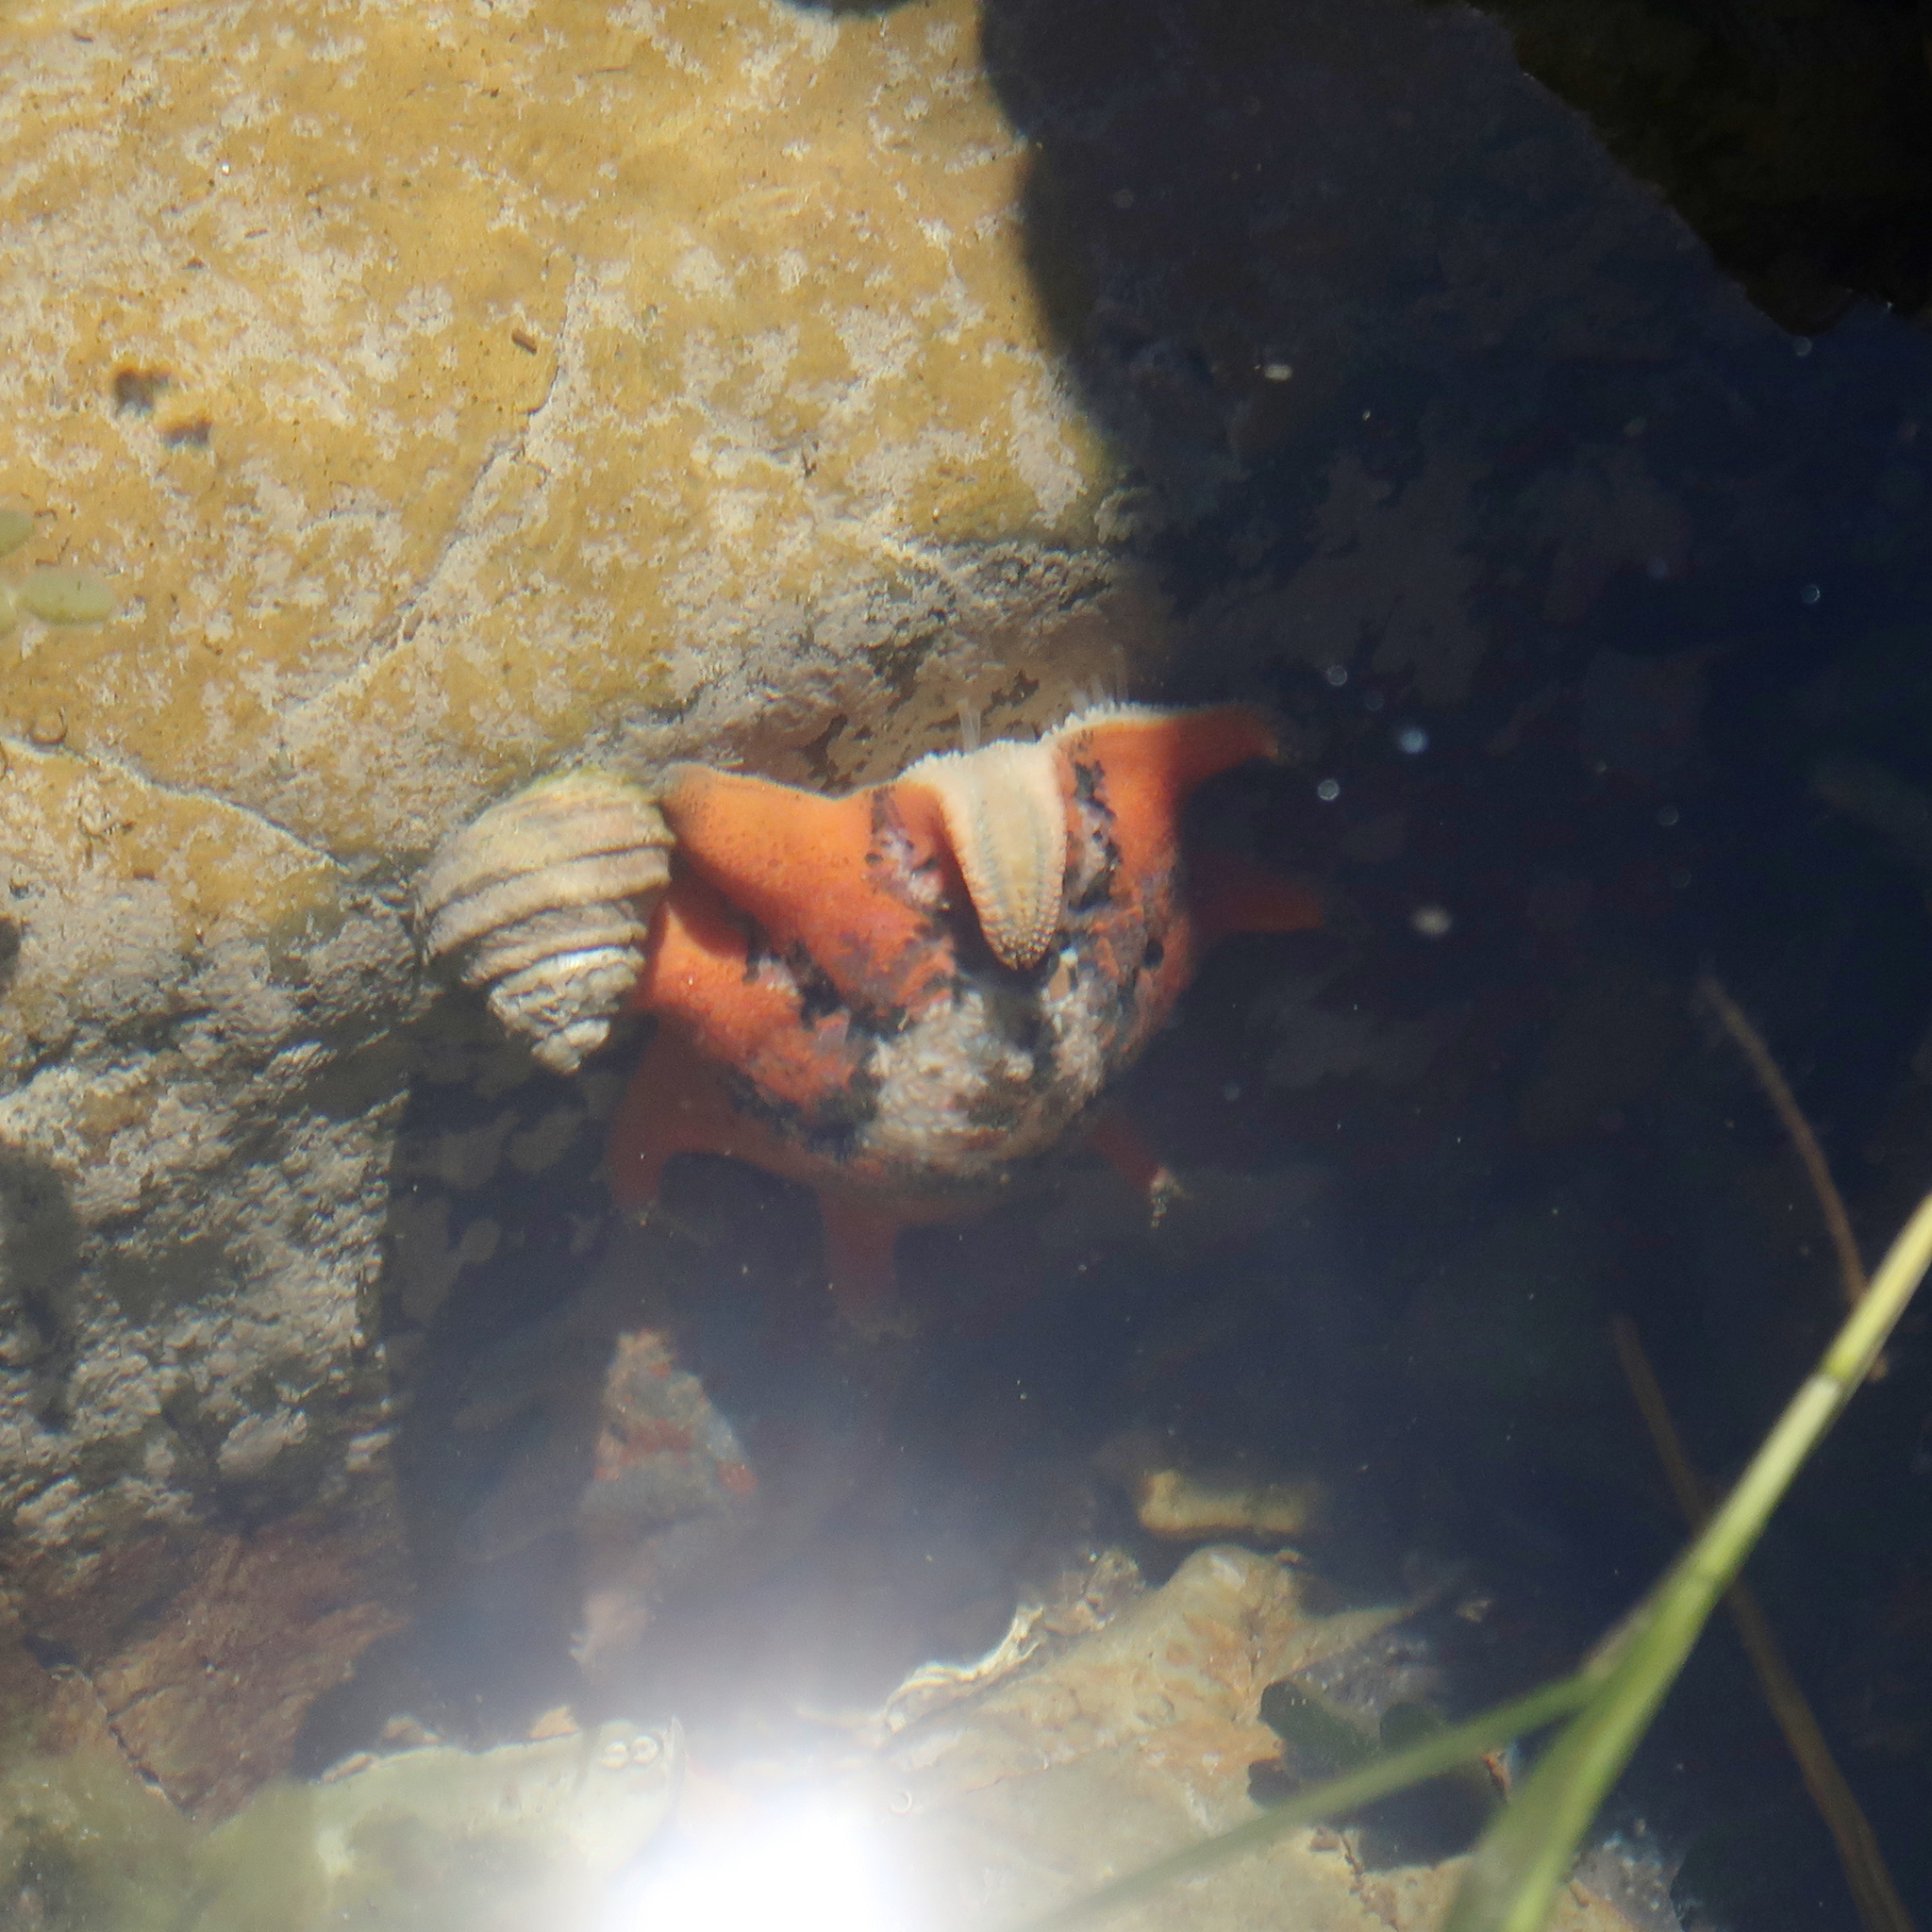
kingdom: Animalia
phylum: Echinodermata
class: Asteroidea
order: Valvatida
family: Asterinidae
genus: Meridiastra
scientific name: Meridiastra calcar
